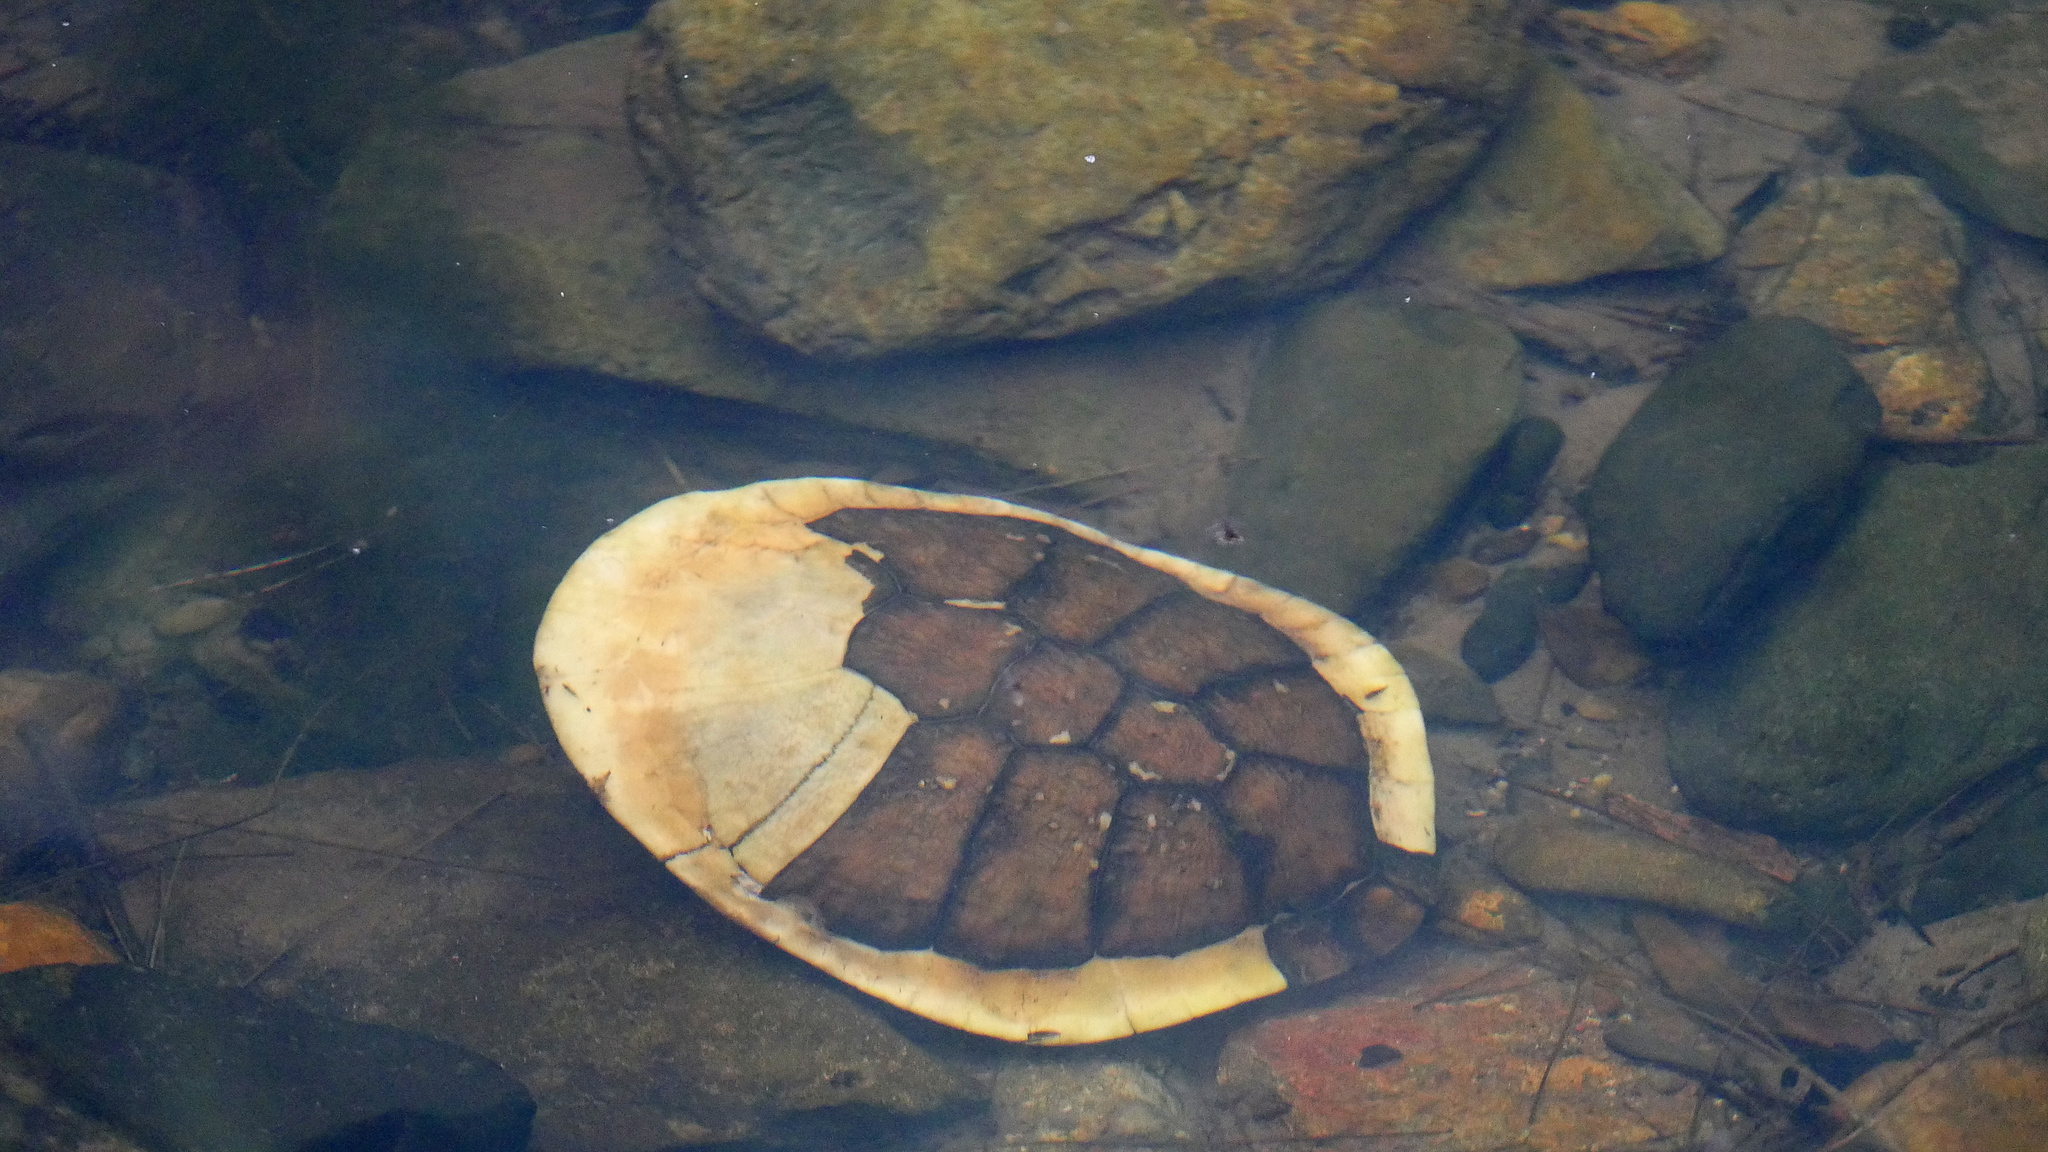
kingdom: Animalia
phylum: Chordata
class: Testudines
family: Chelidae
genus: Chelodina
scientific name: Chelodina longicollis
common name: Eastern snake-necked turtle
